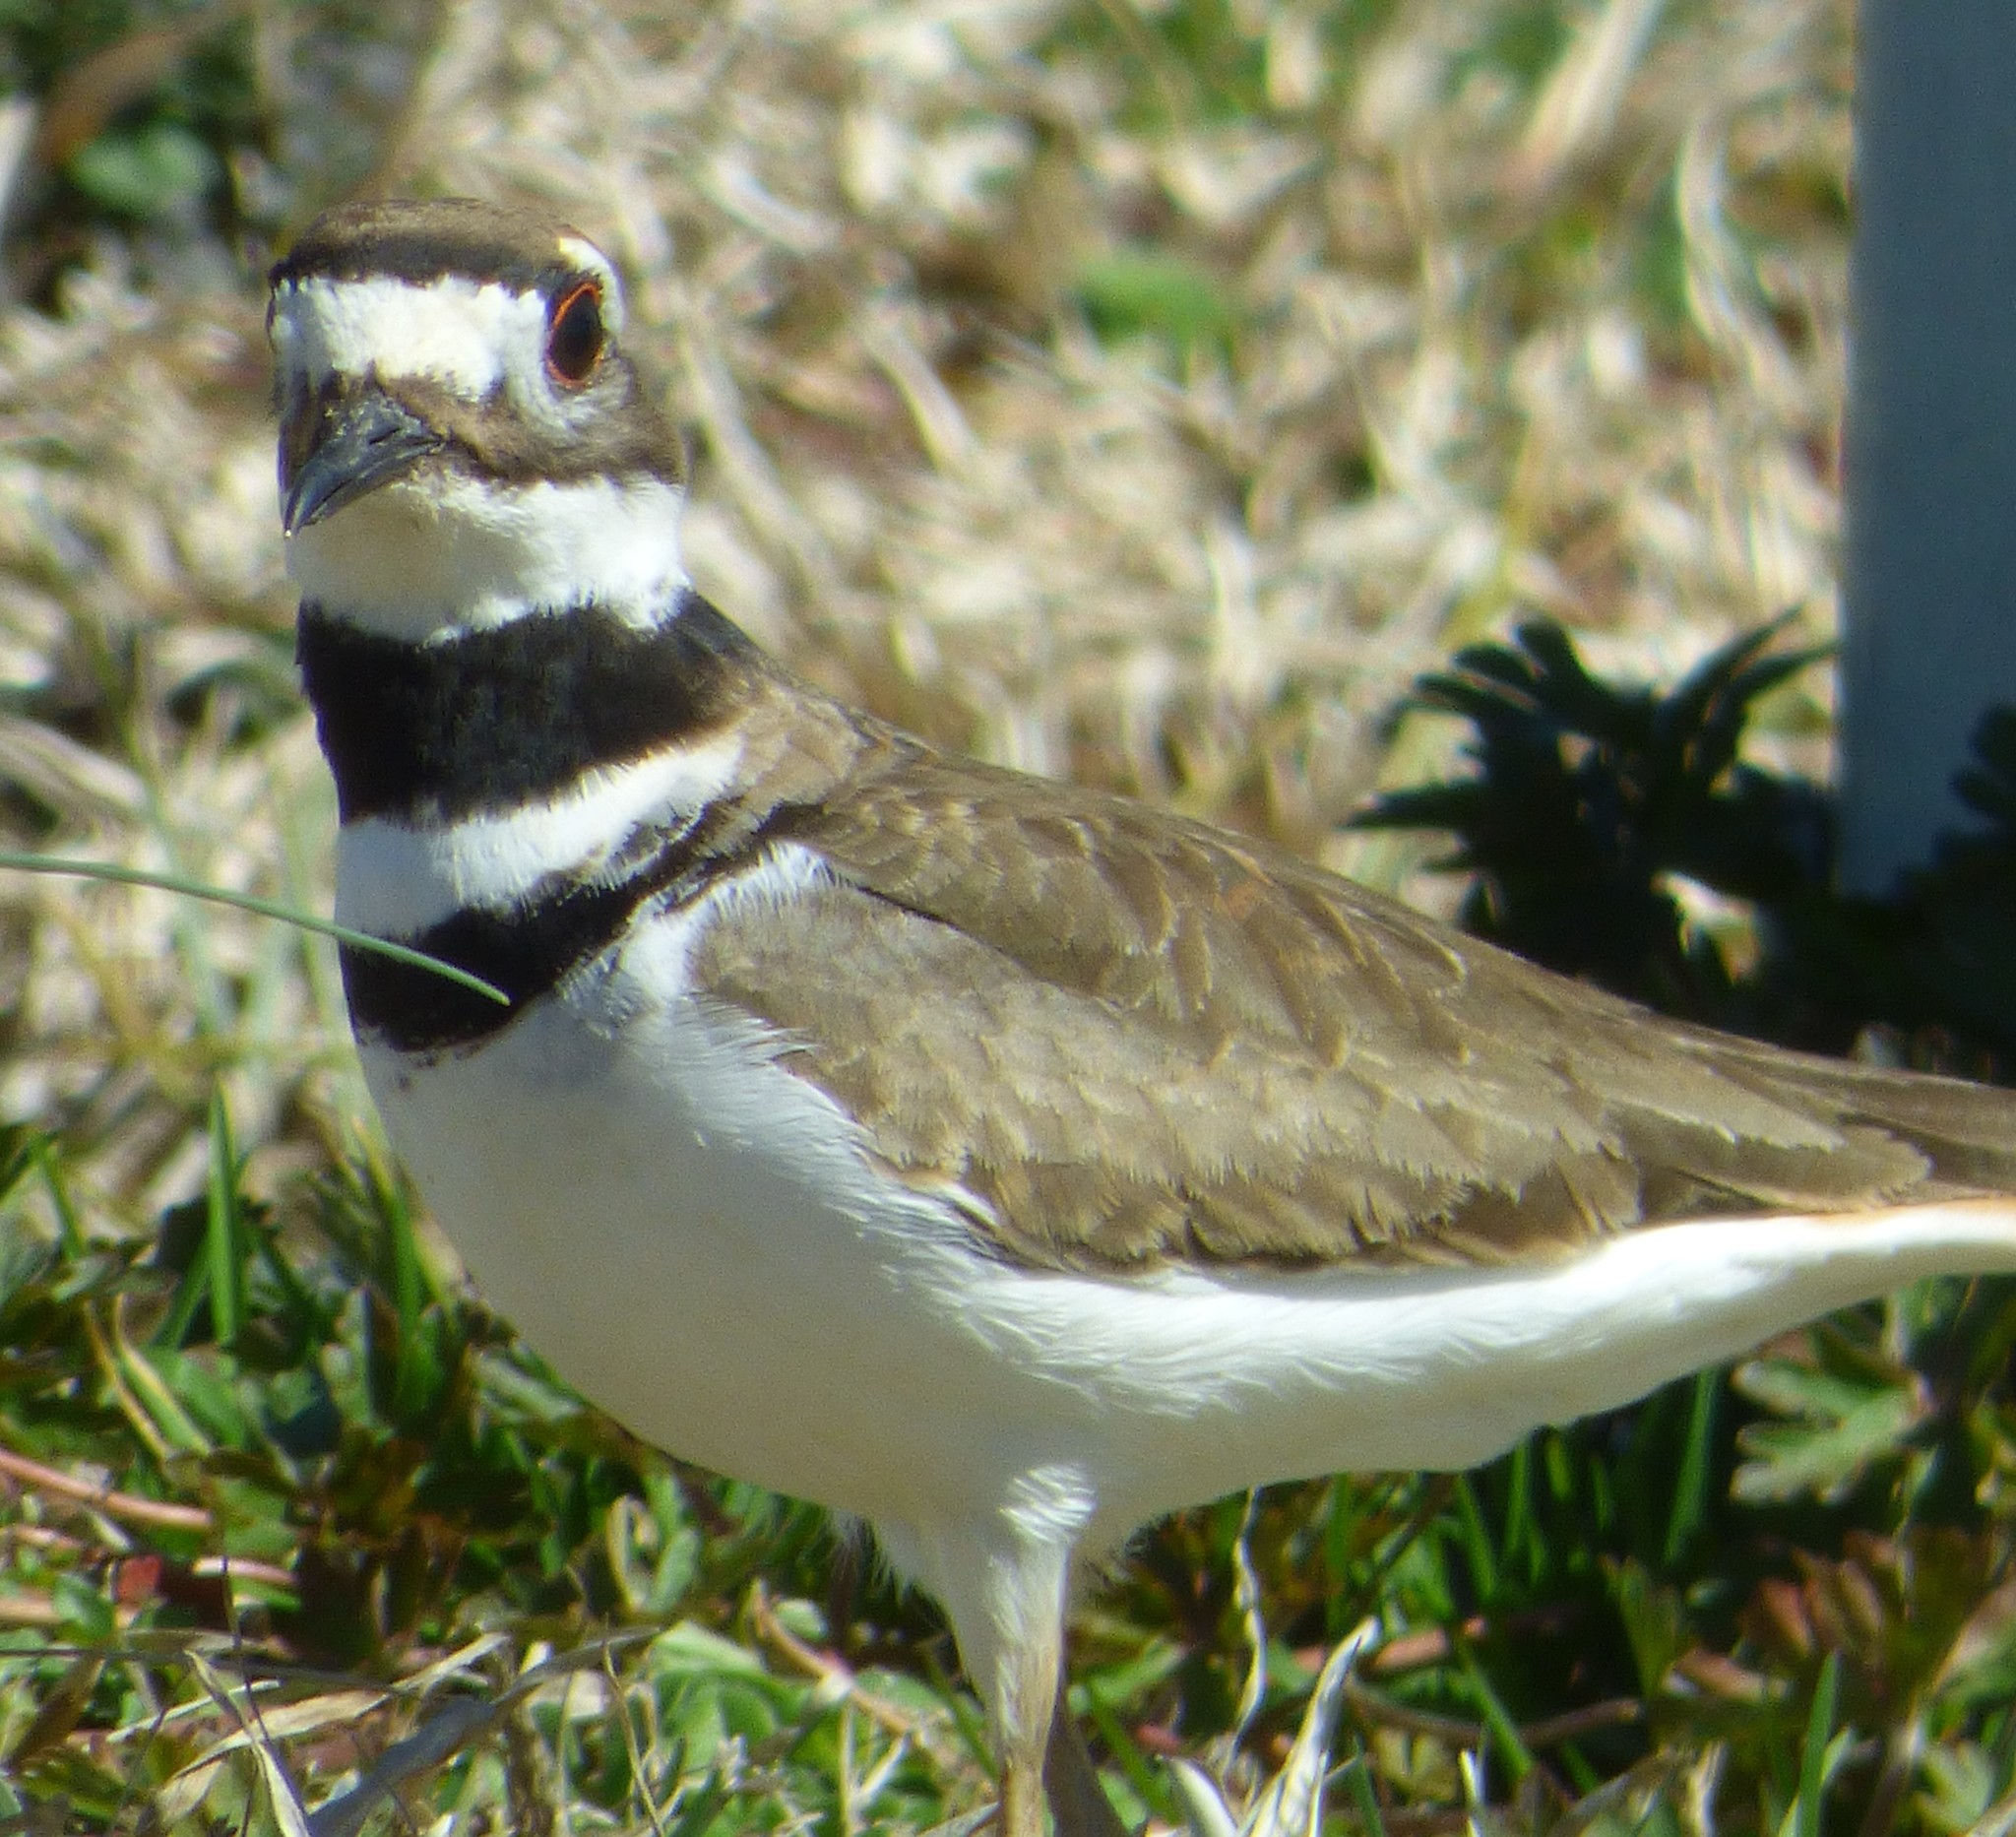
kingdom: Animalia
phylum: Chordata
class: Aves
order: Charadriiformes
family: Charadriidae
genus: Charadrius
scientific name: Charadrius vociferus
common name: Killdeer
